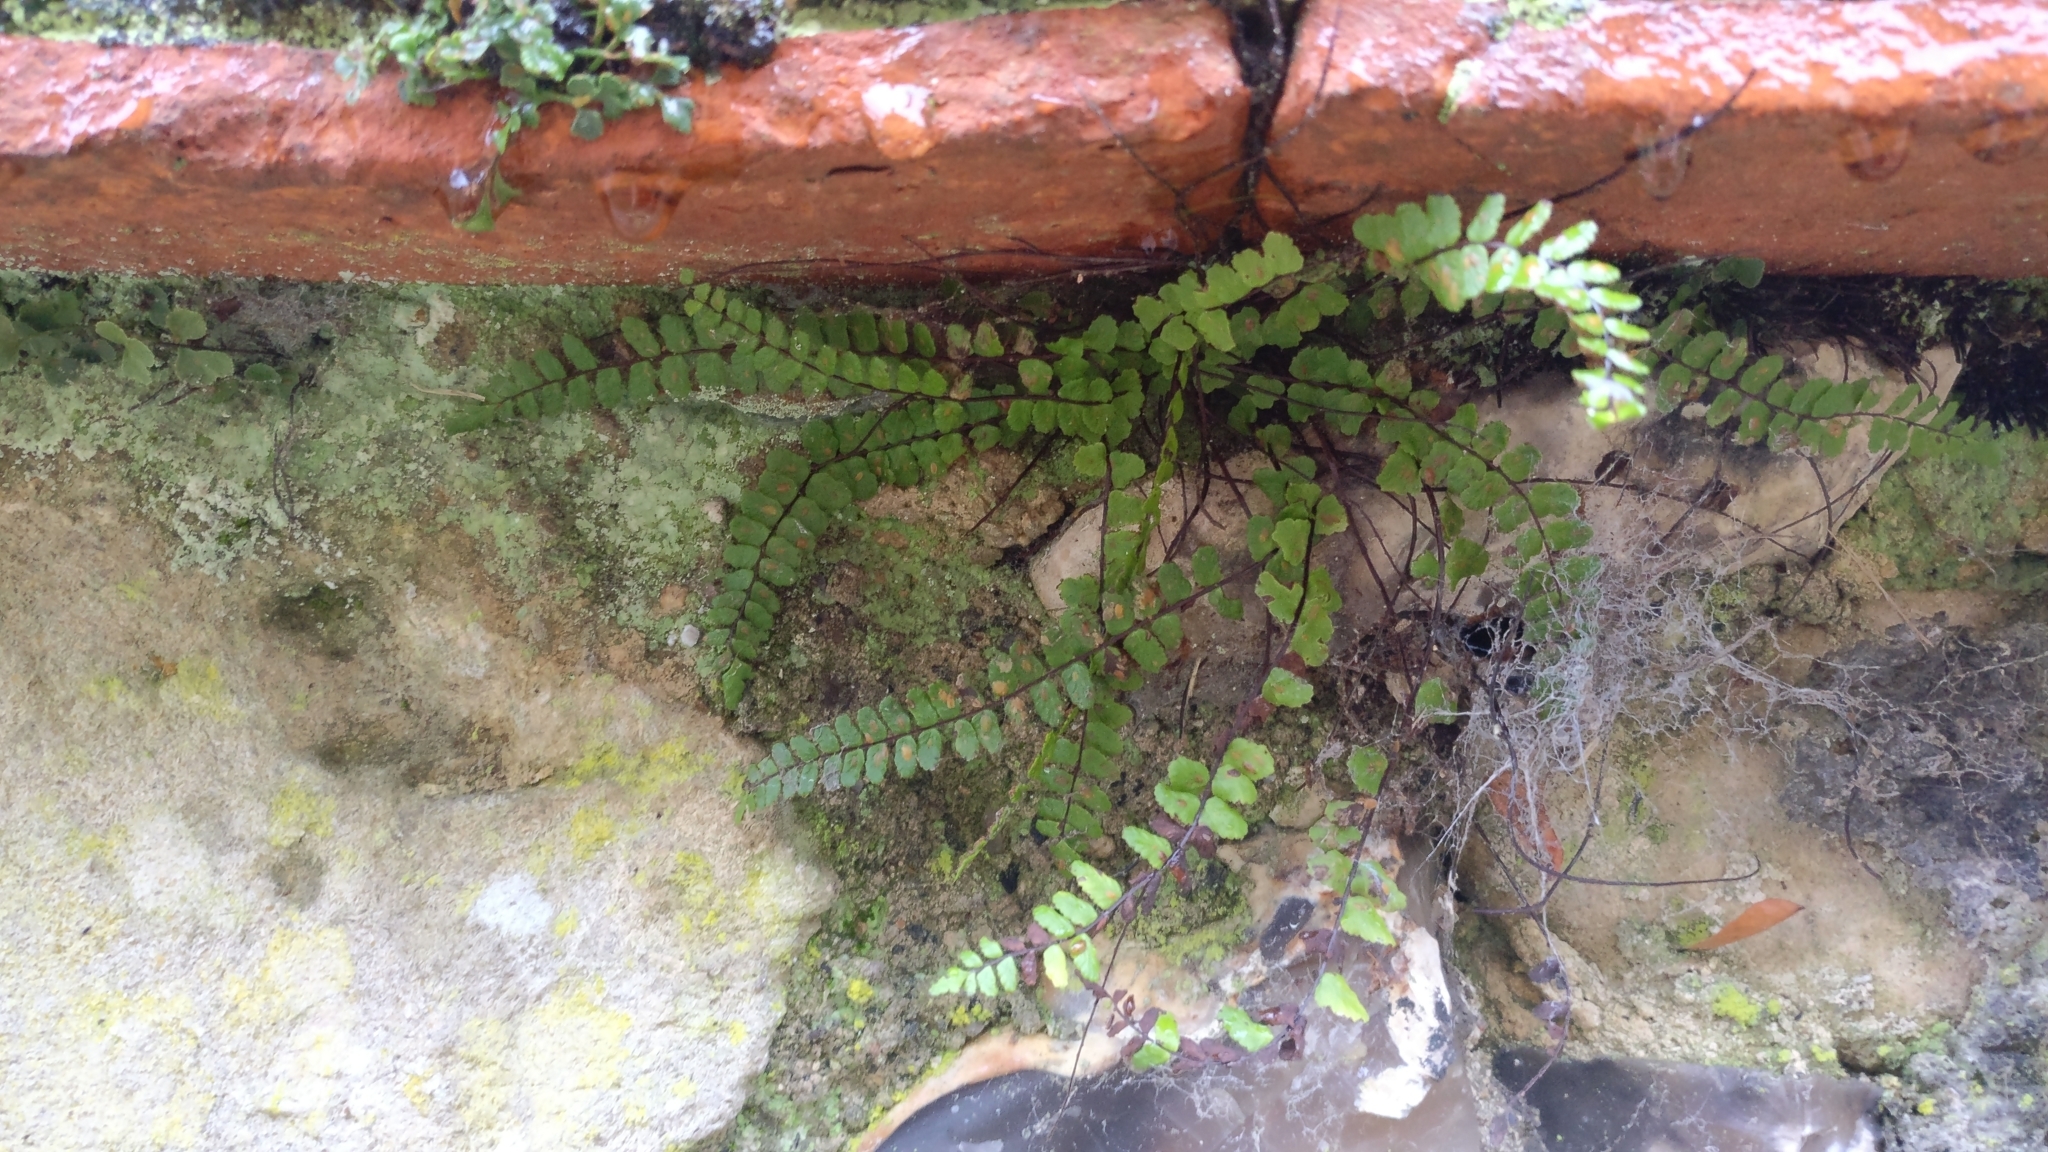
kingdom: Plantae
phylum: Tracheophyta
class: Polypodiopsida
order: Polypodiales
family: Aspleniaceae
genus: Asplenium
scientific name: Asplenium trichomanes
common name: Maidenhair spleenwort
